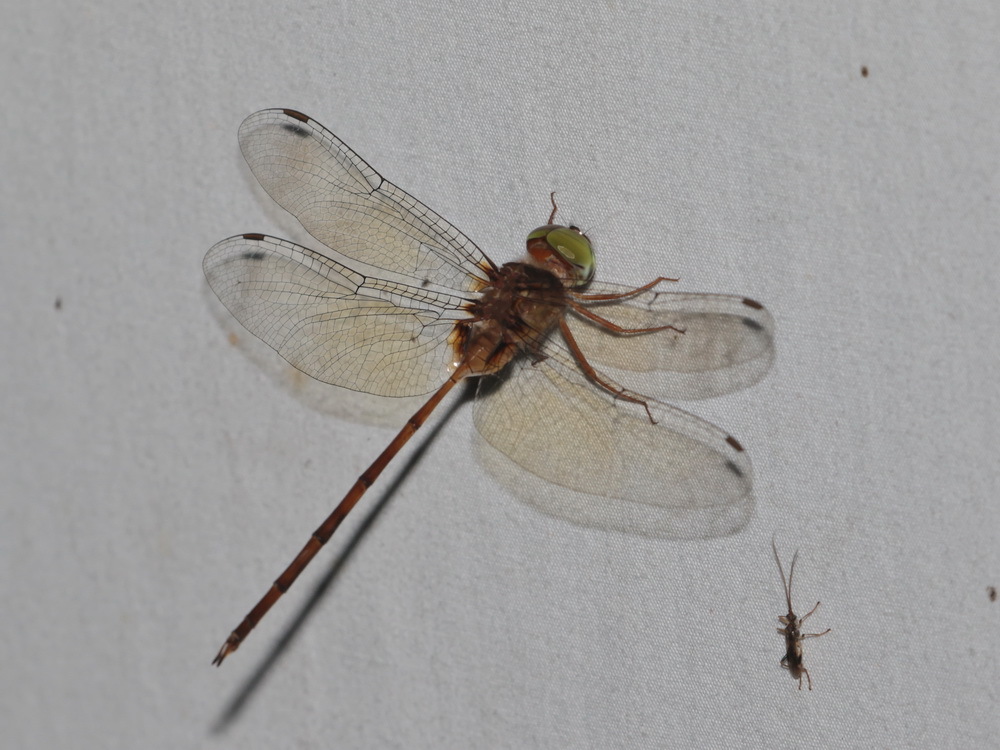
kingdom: Animalia
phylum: Arthropoda
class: Insecta
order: Odonata
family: Libellulidae
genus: Zyxomma
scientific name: Zyxomma petiolatum
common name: Dingy dusk-darter
